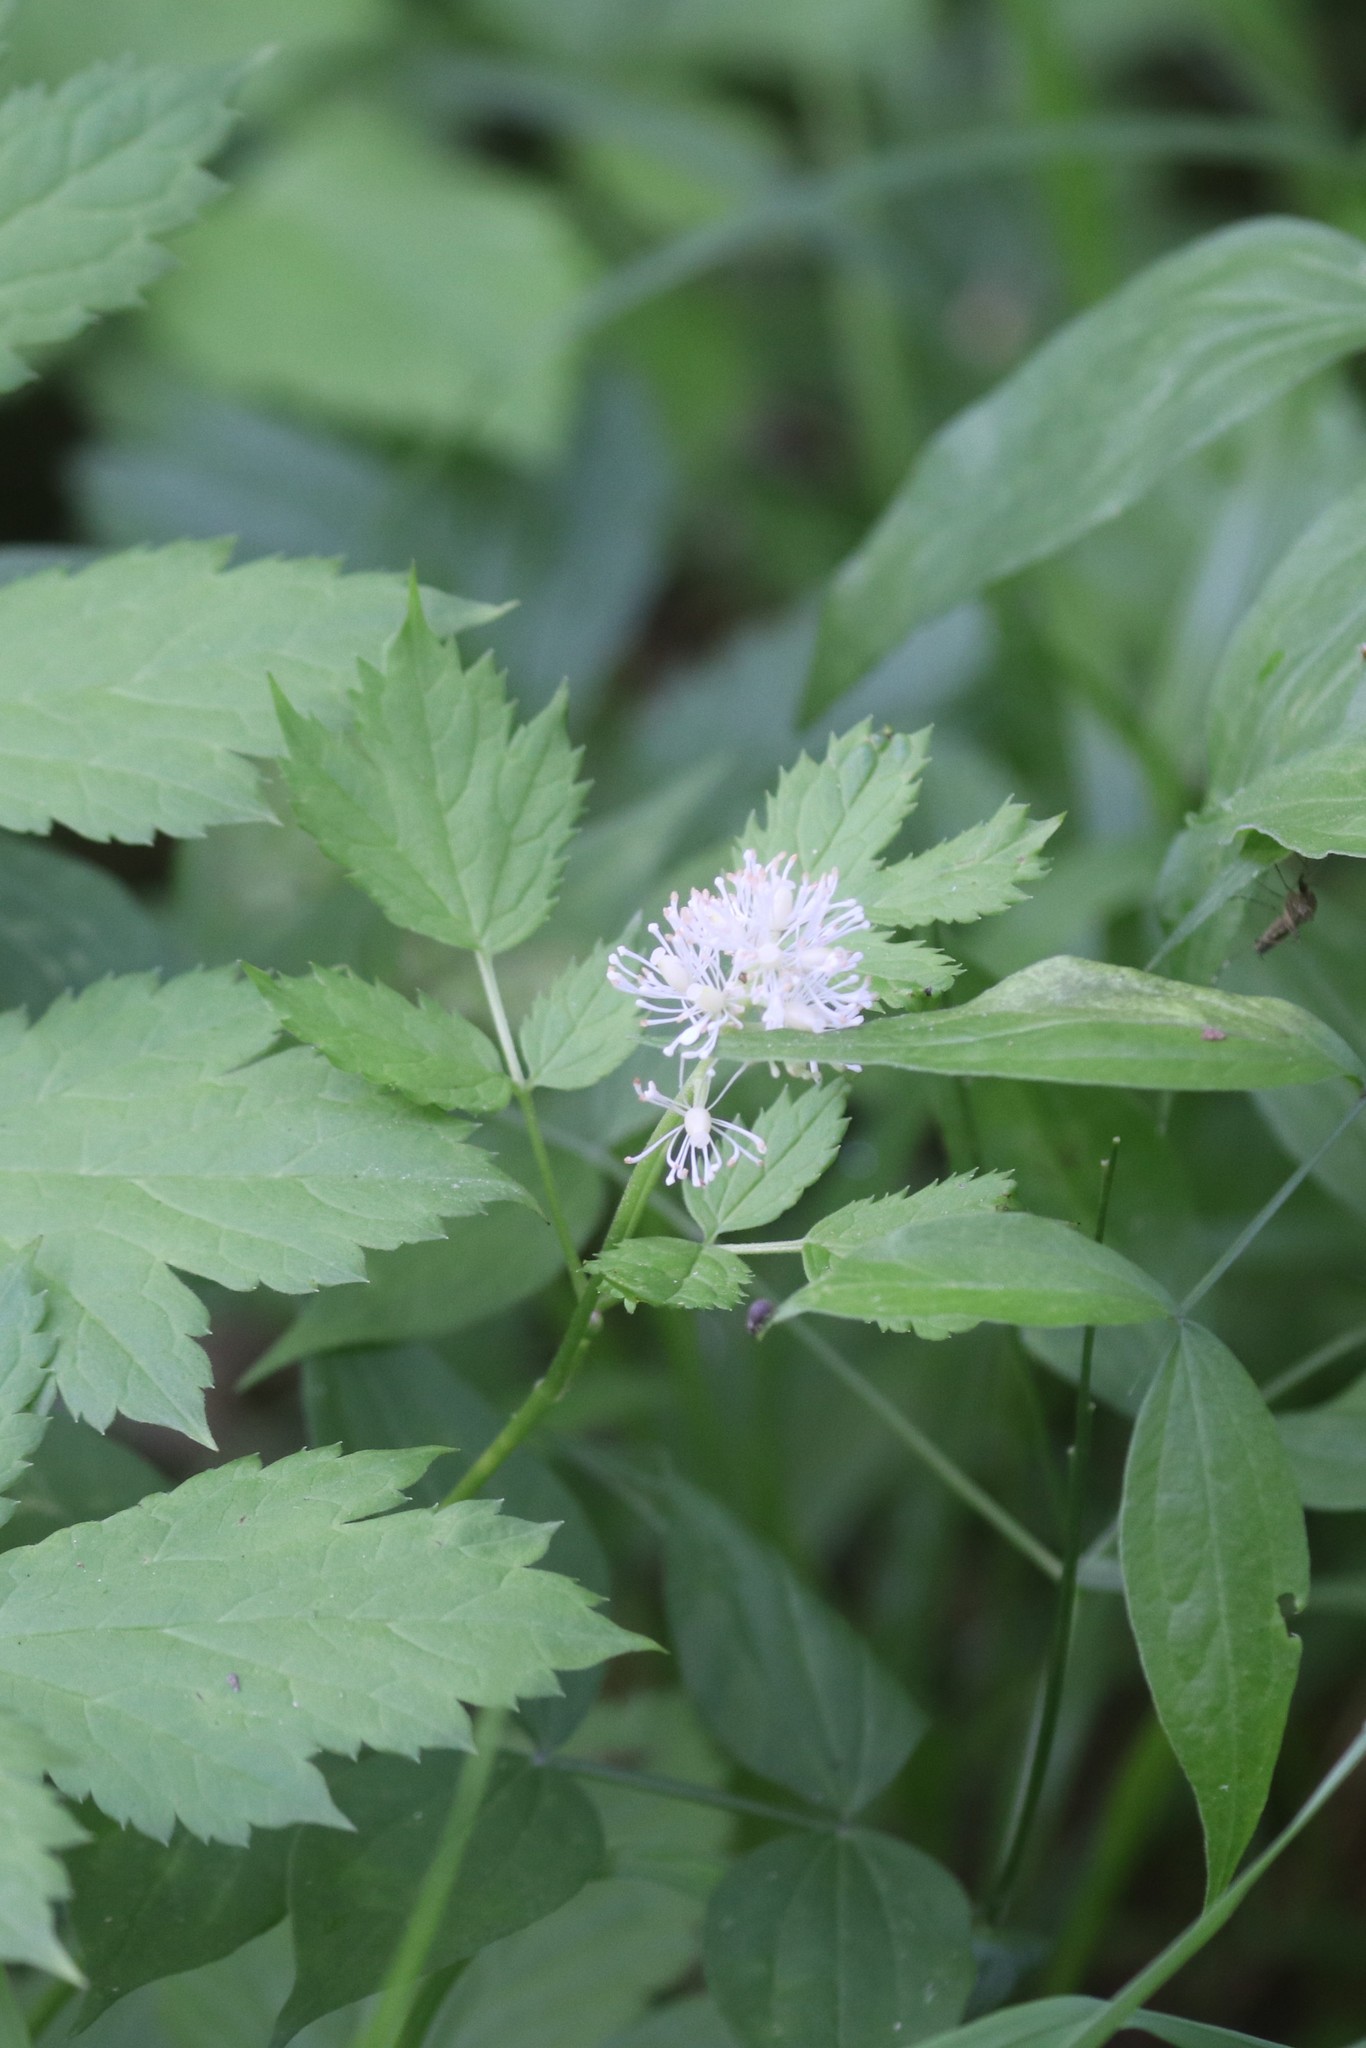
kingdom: Plantae
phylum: Tracheophyta
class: Magnoliopsida
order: Ranunculales
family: Ranunculaceae
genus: Actaea
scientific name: Actaea spicata
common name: Baneberry
